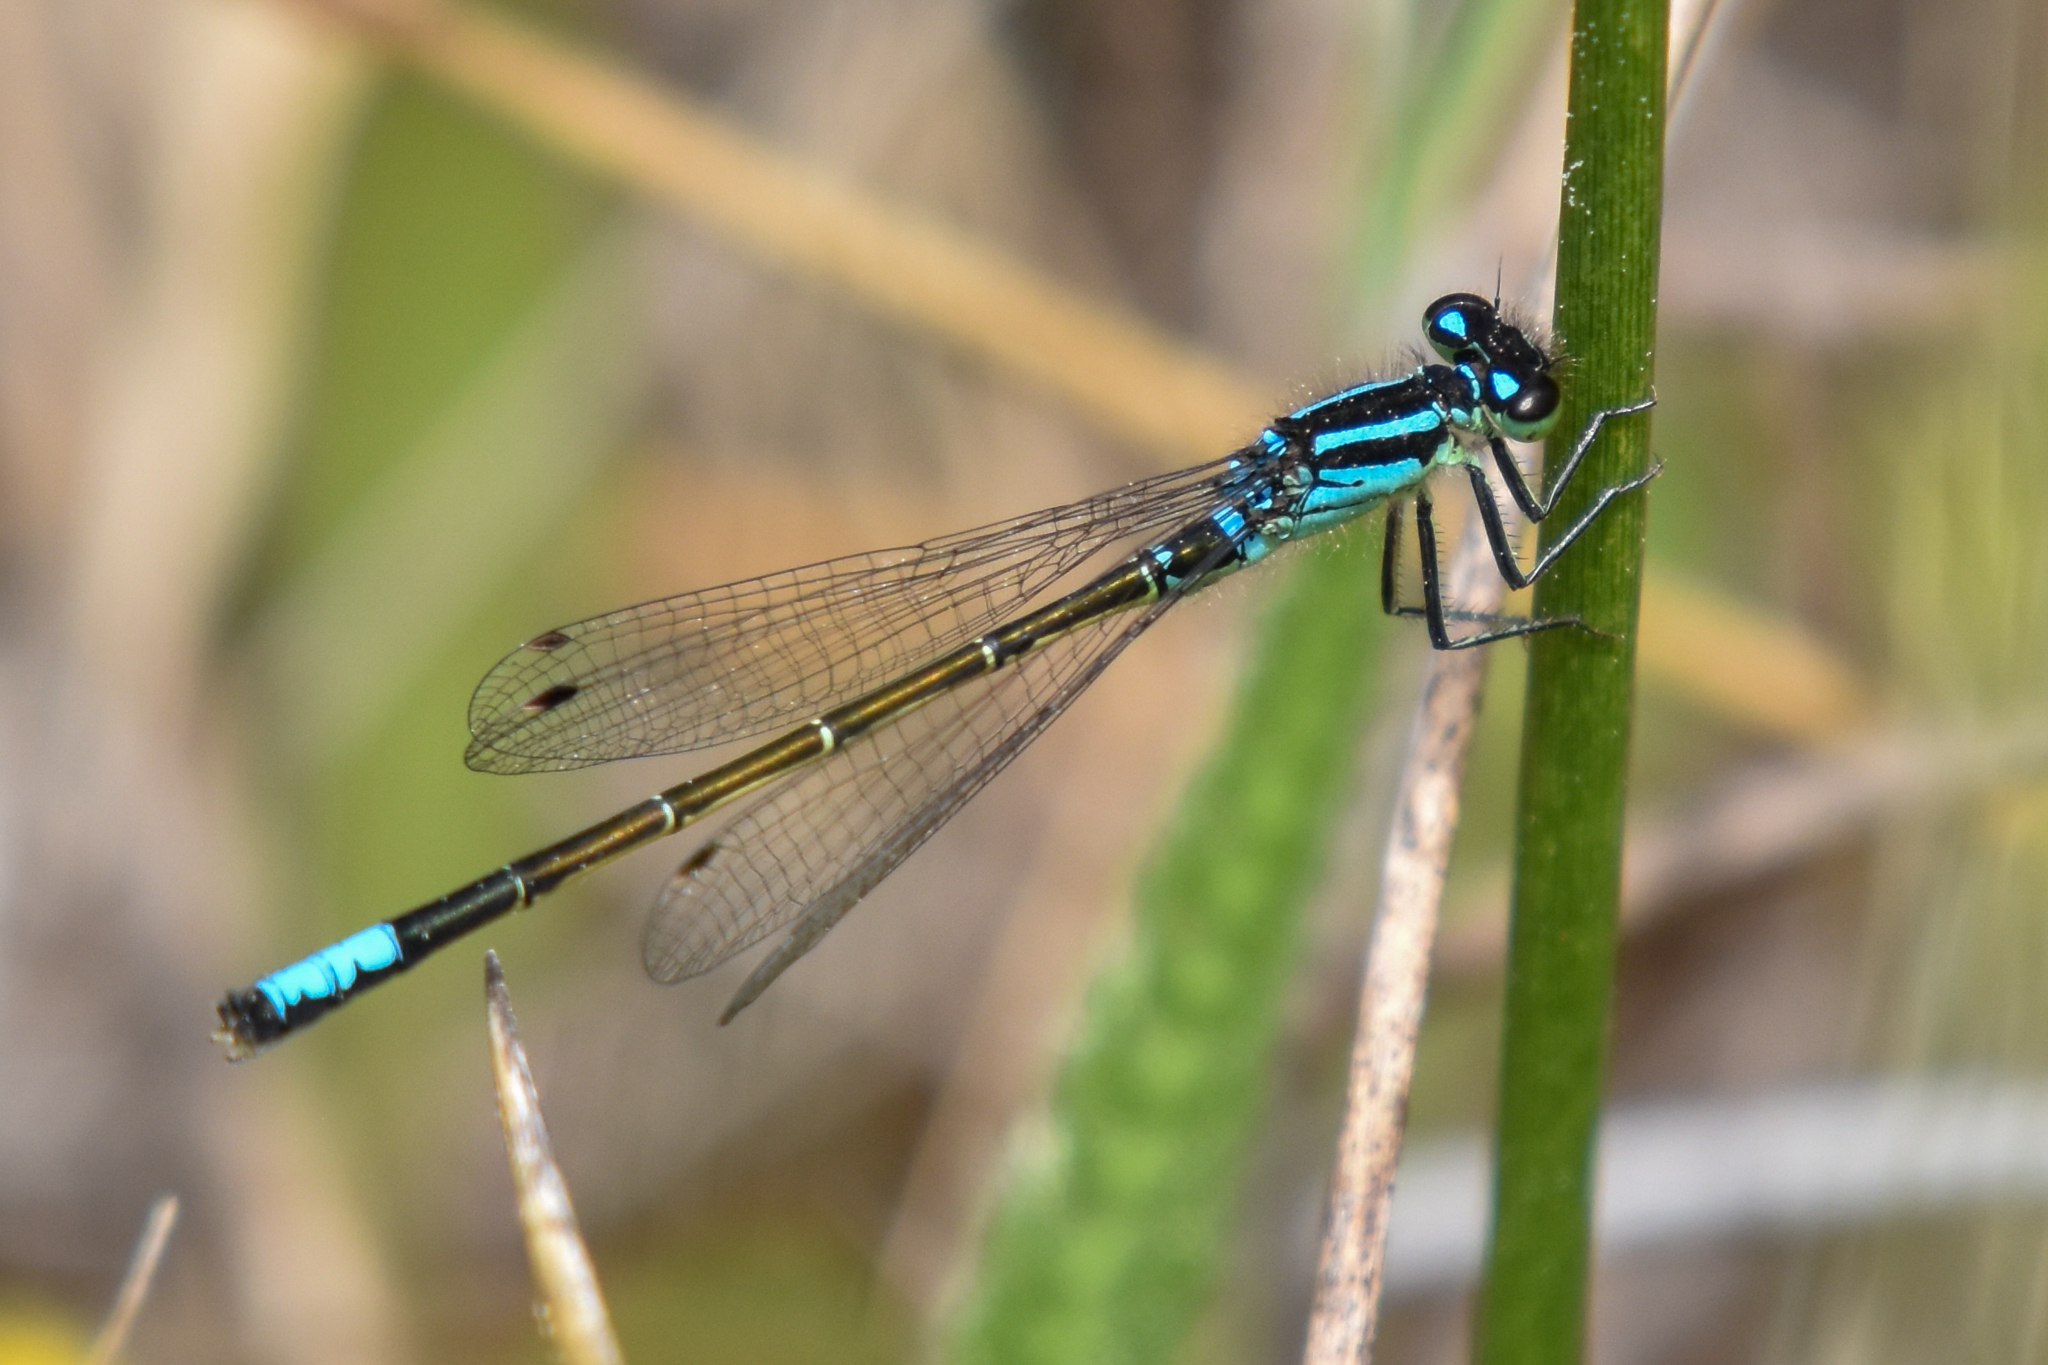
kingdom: Animalia
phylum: Arthropoda
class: Insecta
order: Odonata
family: Coenagrionidae
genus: Ischnura
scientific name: Ischnura erratica
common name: Swift forktail
